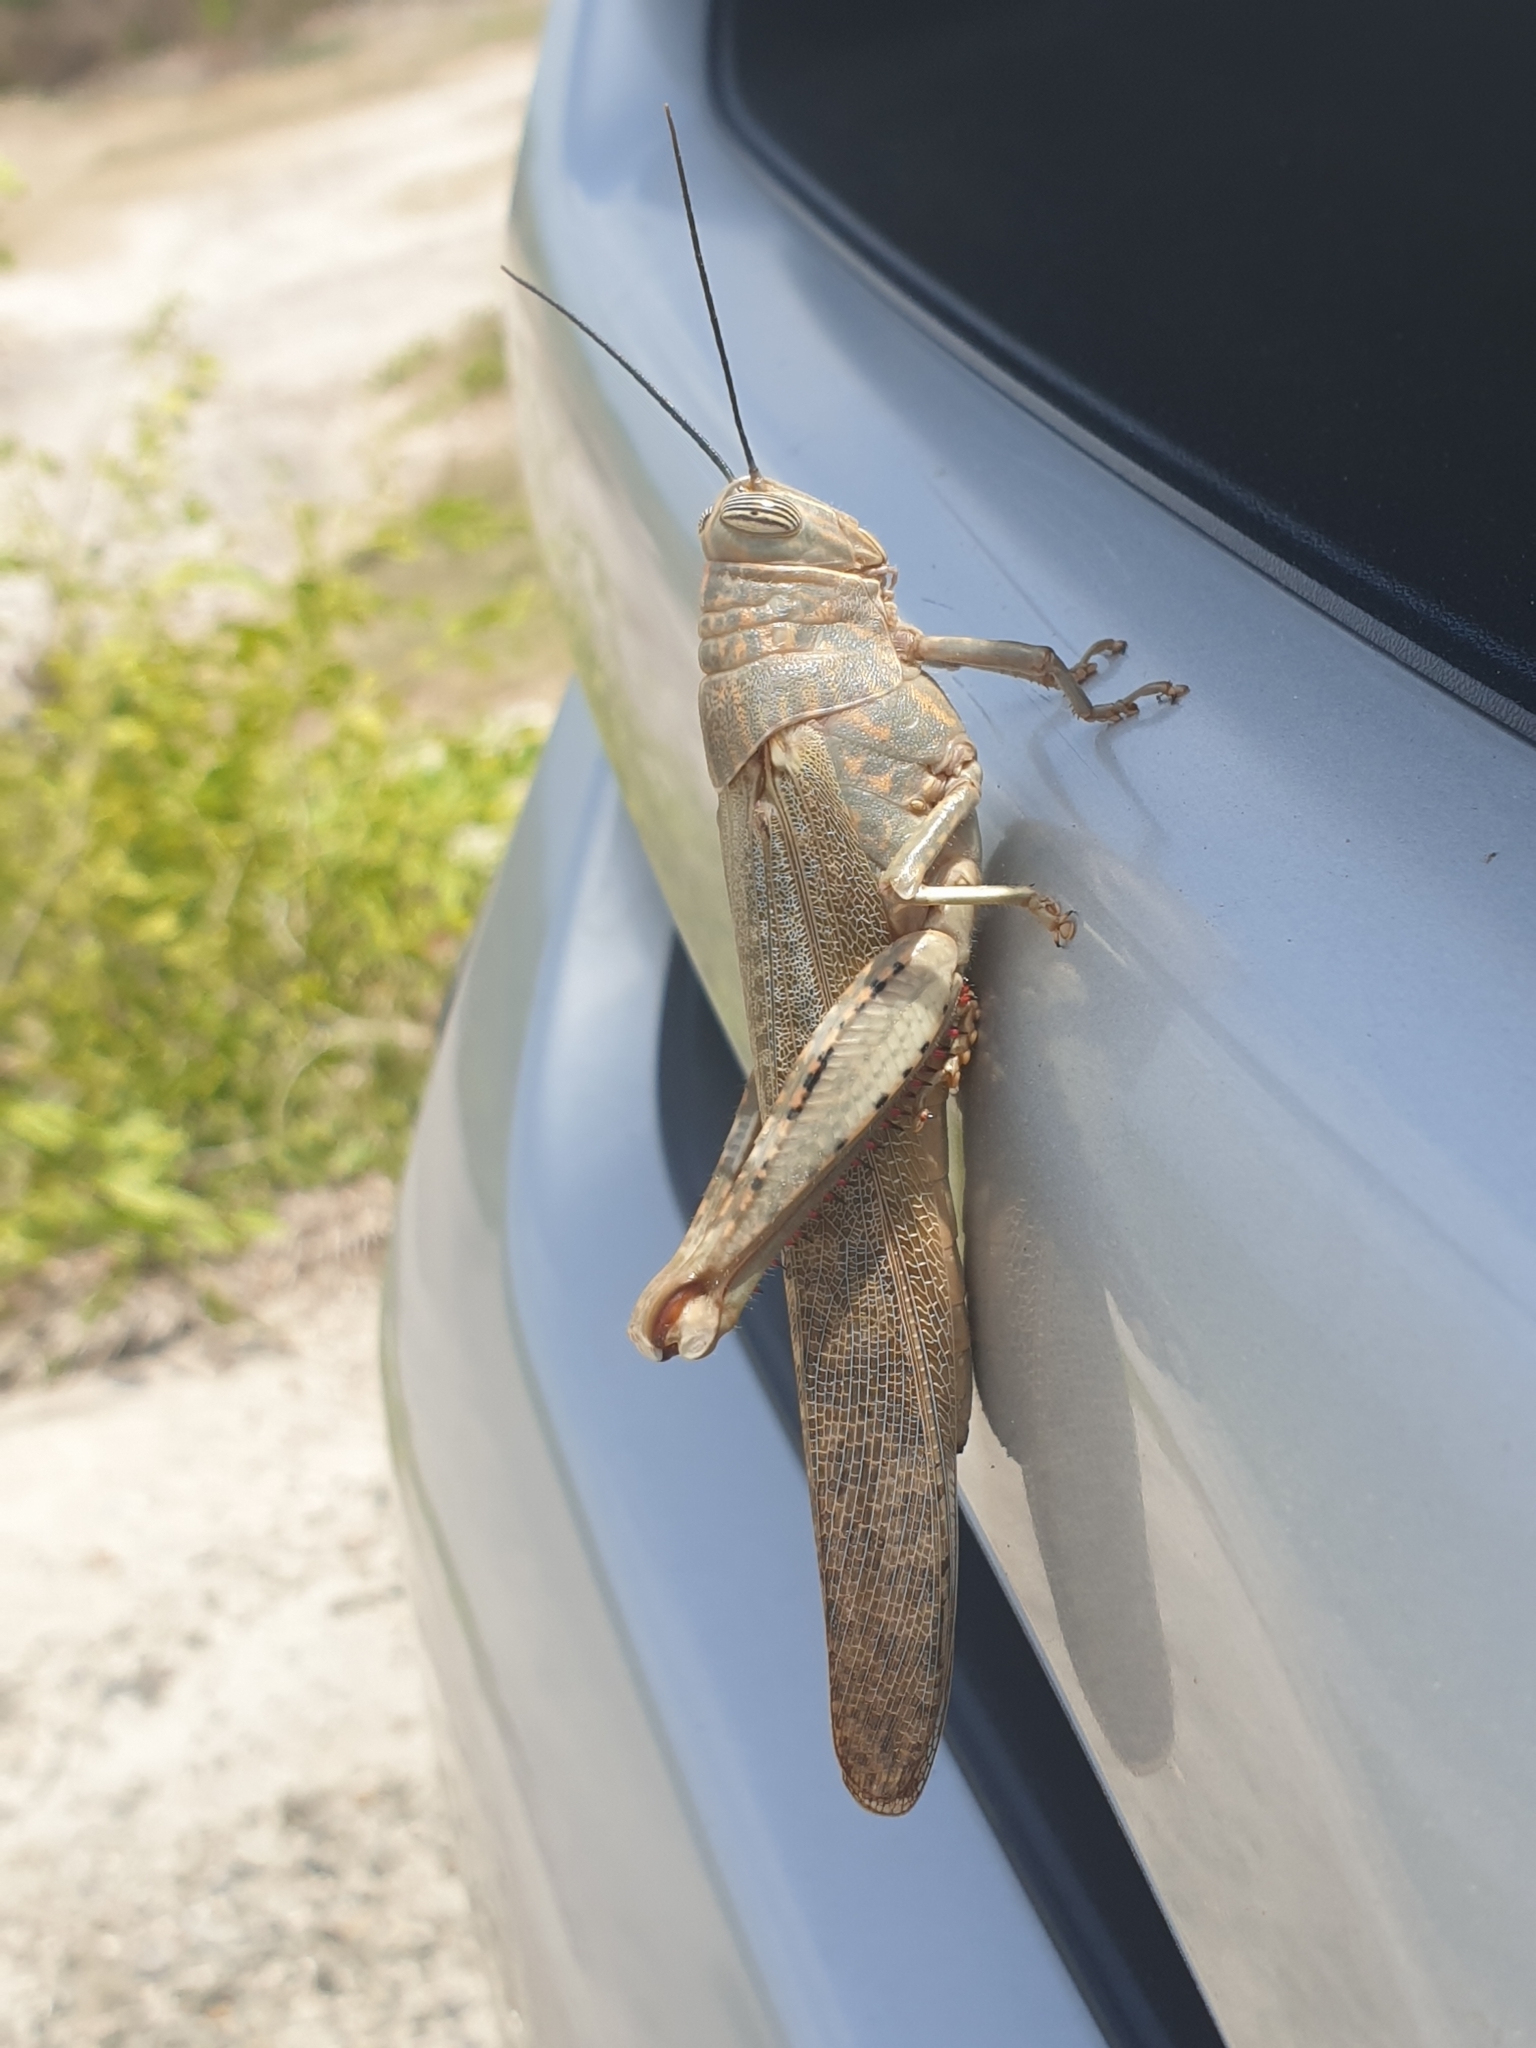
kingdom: Animalia
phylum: Arthropoda
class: Insecta
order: Orthoptera
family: Acrididae
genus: Anacridium
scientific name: Anacridium flavescens
